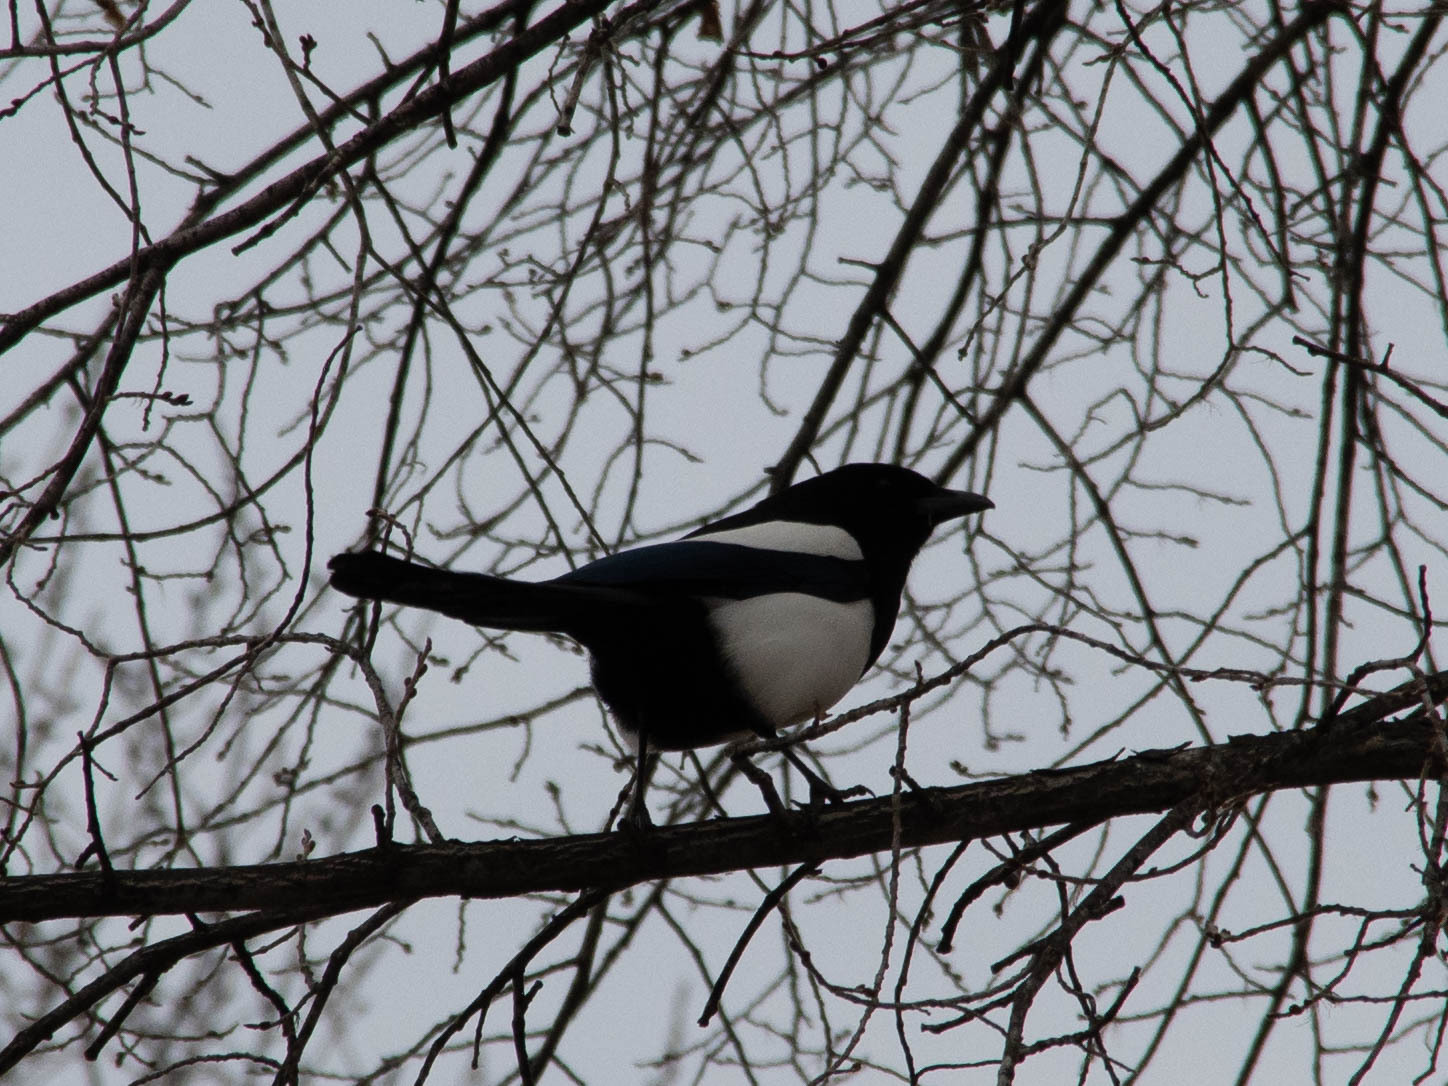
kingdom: Animalia
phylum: Chordata
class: Aves
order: Passeriformes
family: Corvidae
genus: Pica
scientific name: Pica hudsonia
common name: Black-billed magpie
